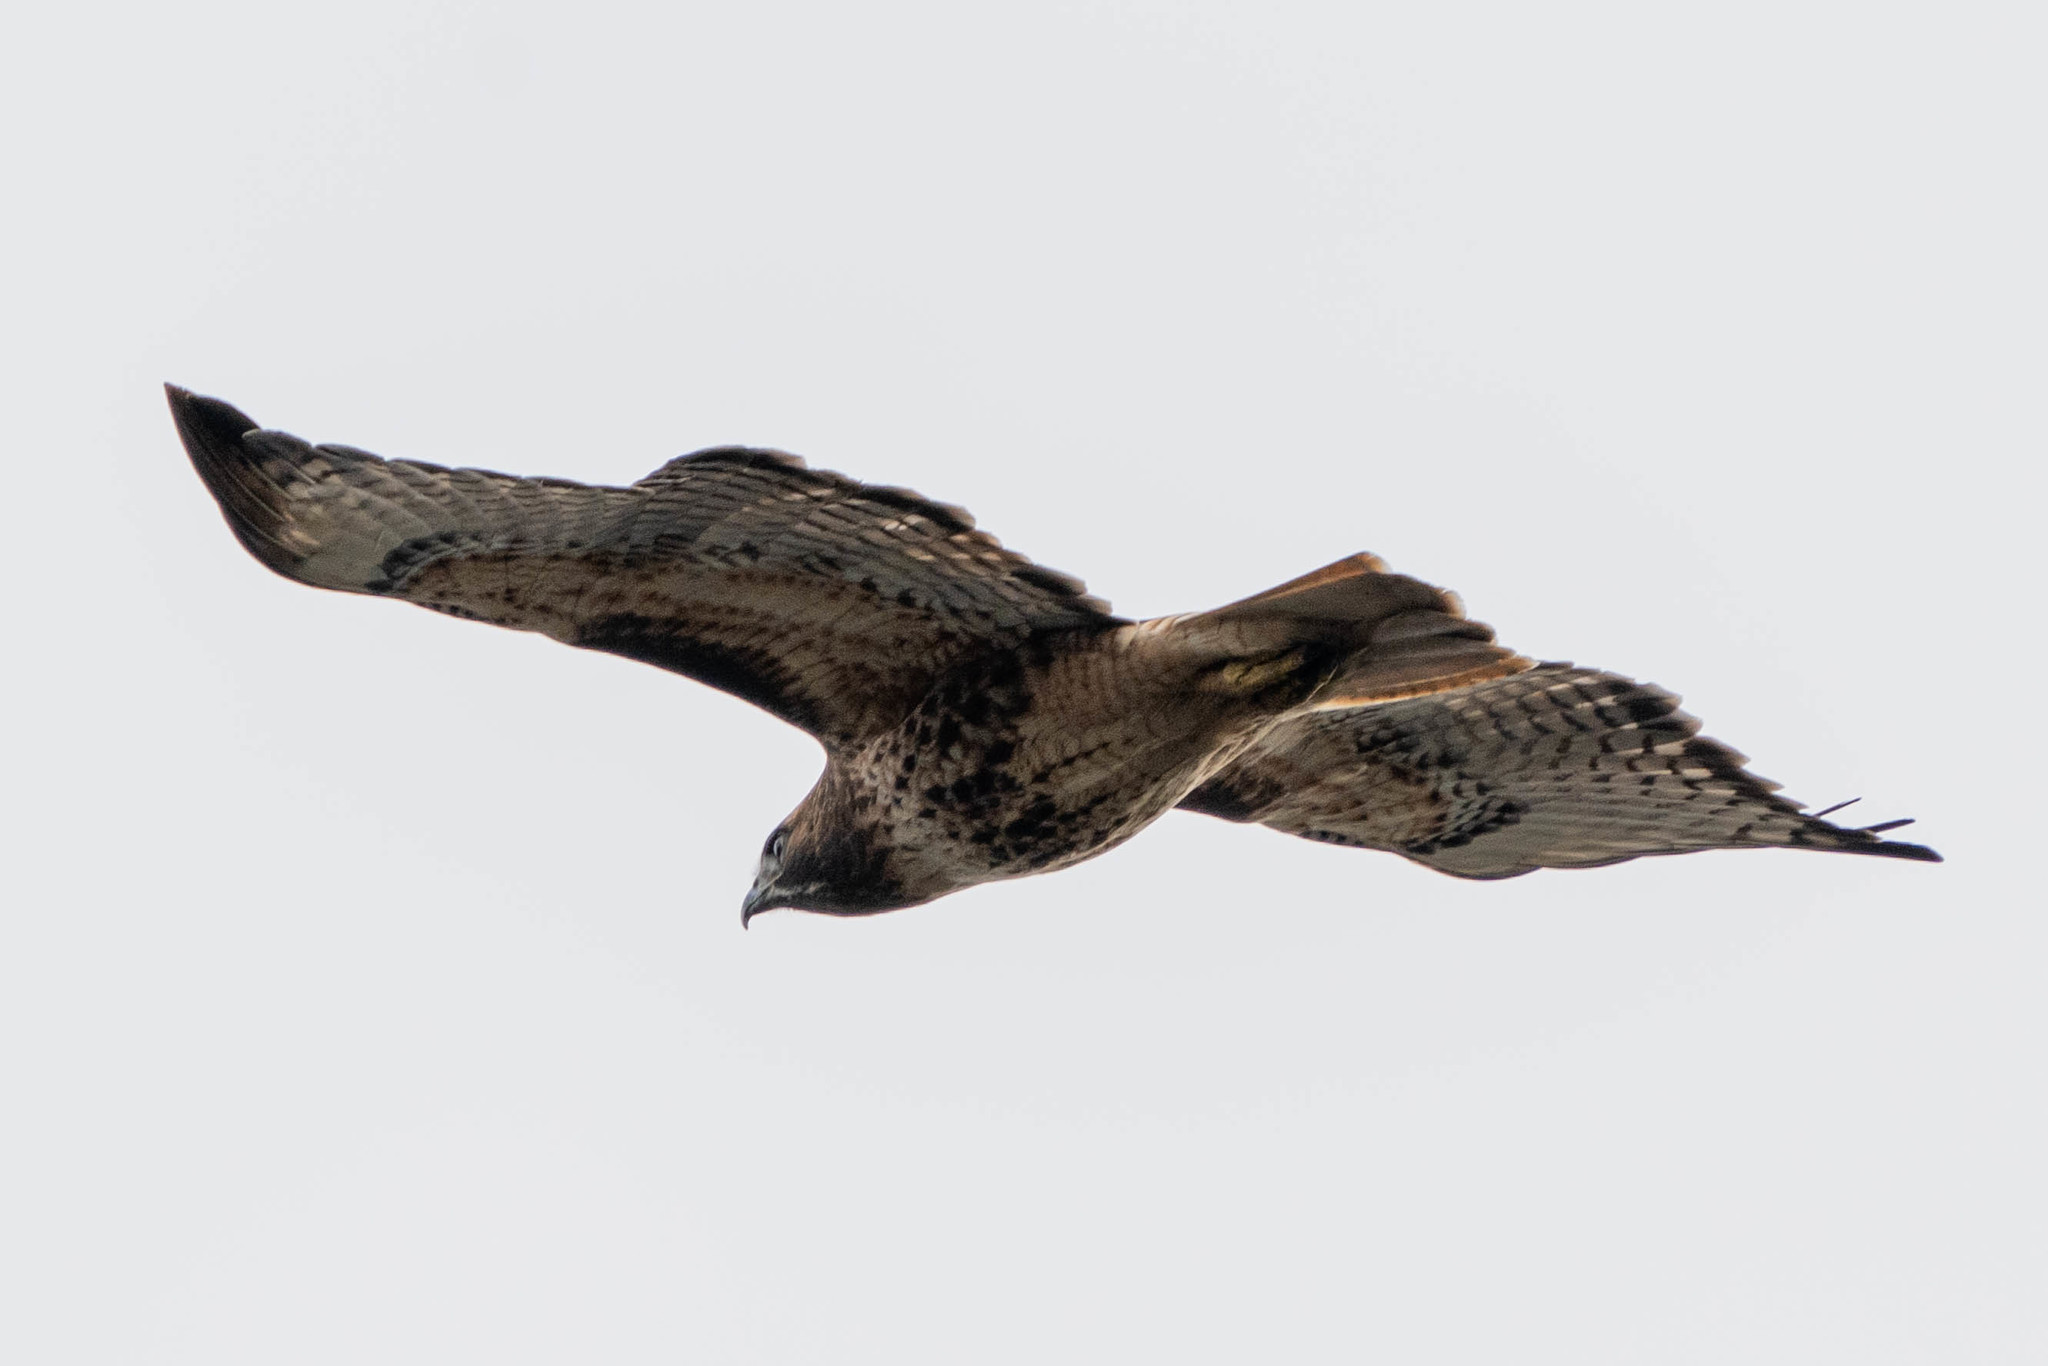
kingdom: Animalia
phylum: Chordata
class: Aves
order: Accipitriformes
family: Accipitridae
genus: Buteo
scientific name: Buteo jamaicensis
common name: Red-tailed hawk
